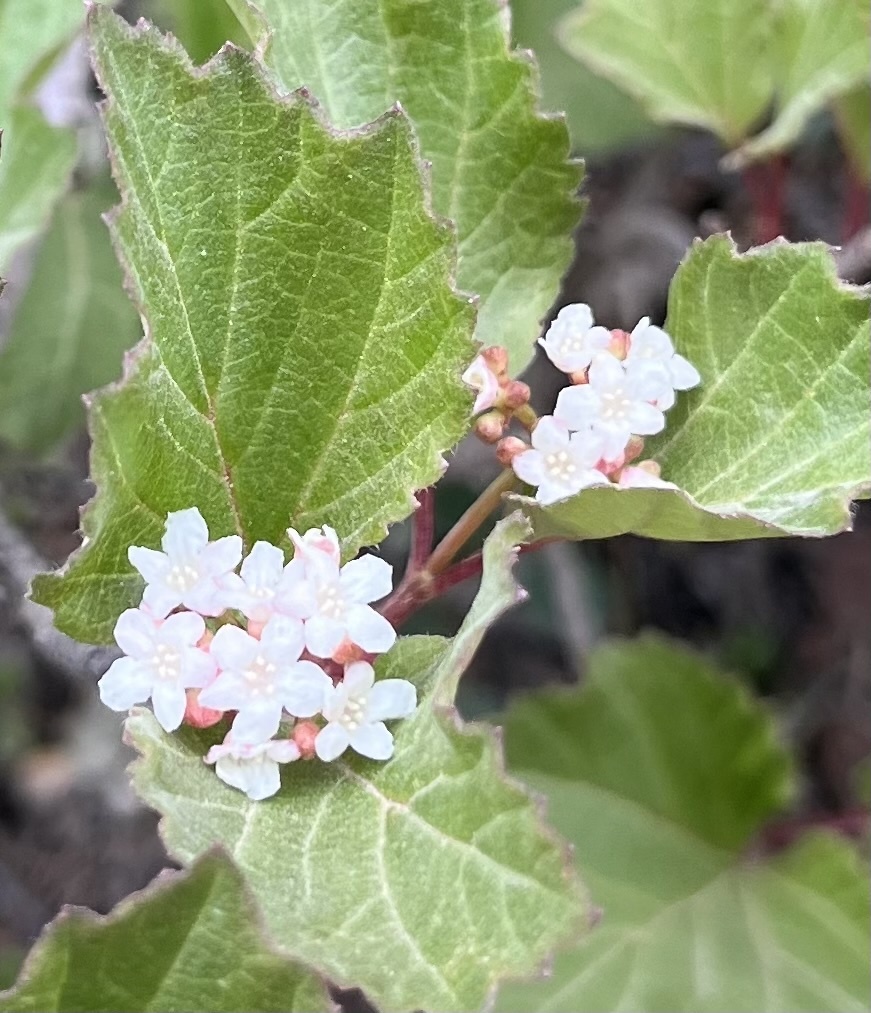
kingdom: Plantae
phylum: Tracheophyta
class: Magnoliopsida
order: Dipsacales
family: Viburnaceae
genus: Viburnum
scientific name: Viburnum edule
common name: Mooseberry
